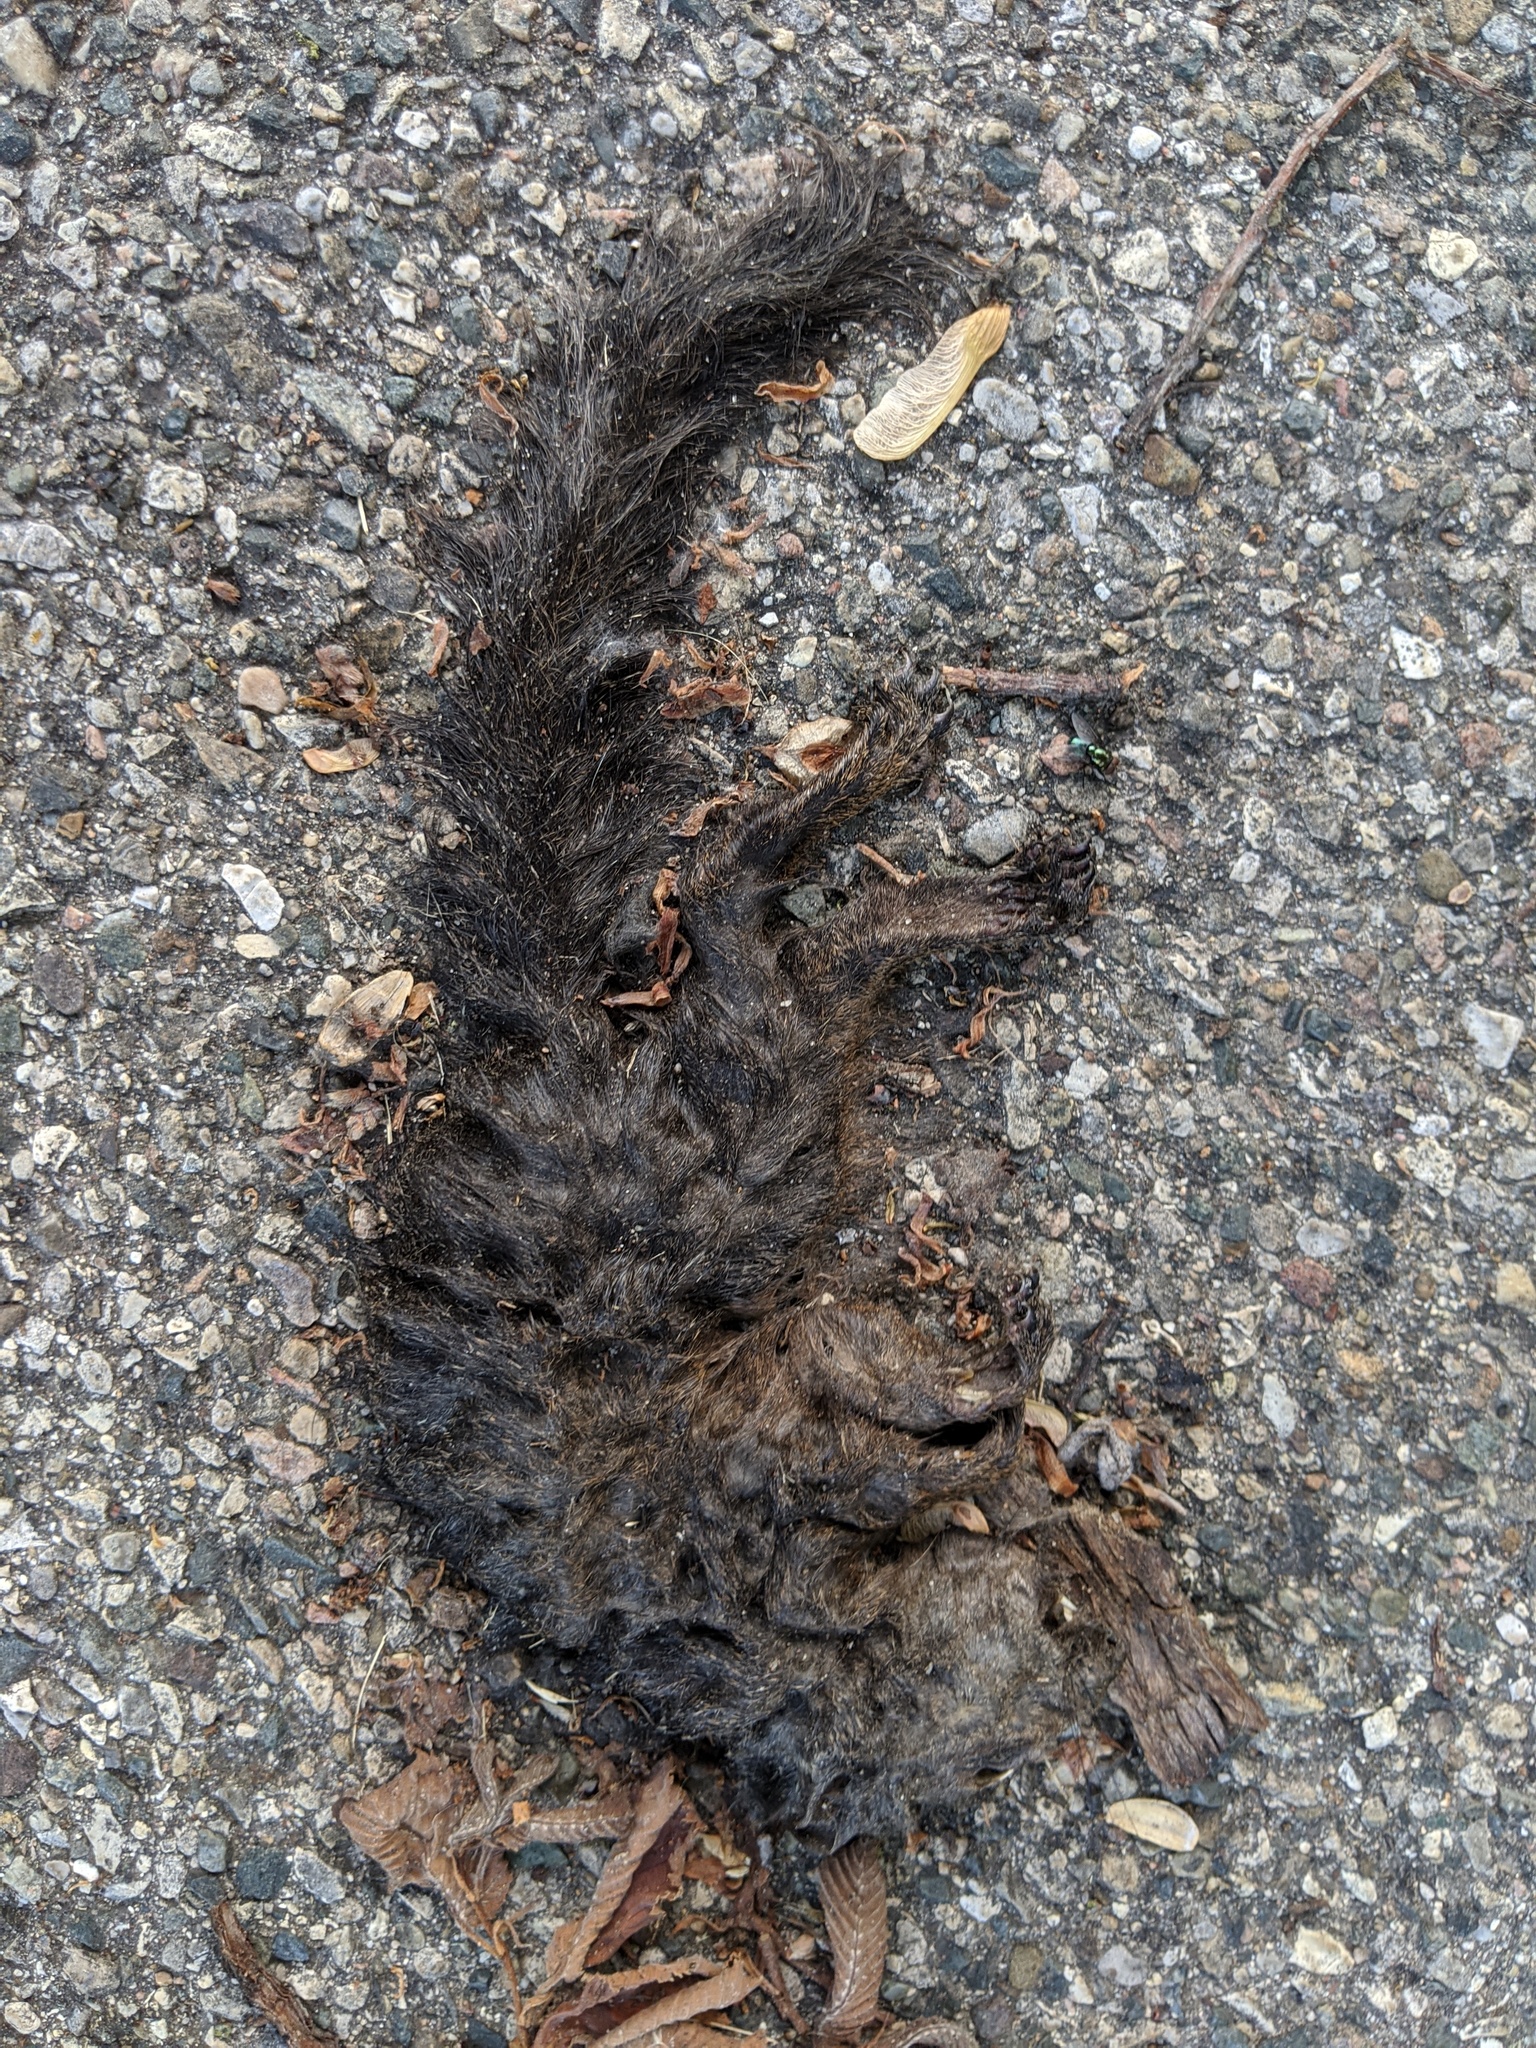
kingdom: Animalia
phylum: Chordata
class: Mammalia
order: Rodentia
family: Sciuridae
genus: Sciurus
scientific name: Sciurus carolinensis
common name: Eastern gray squirrel
